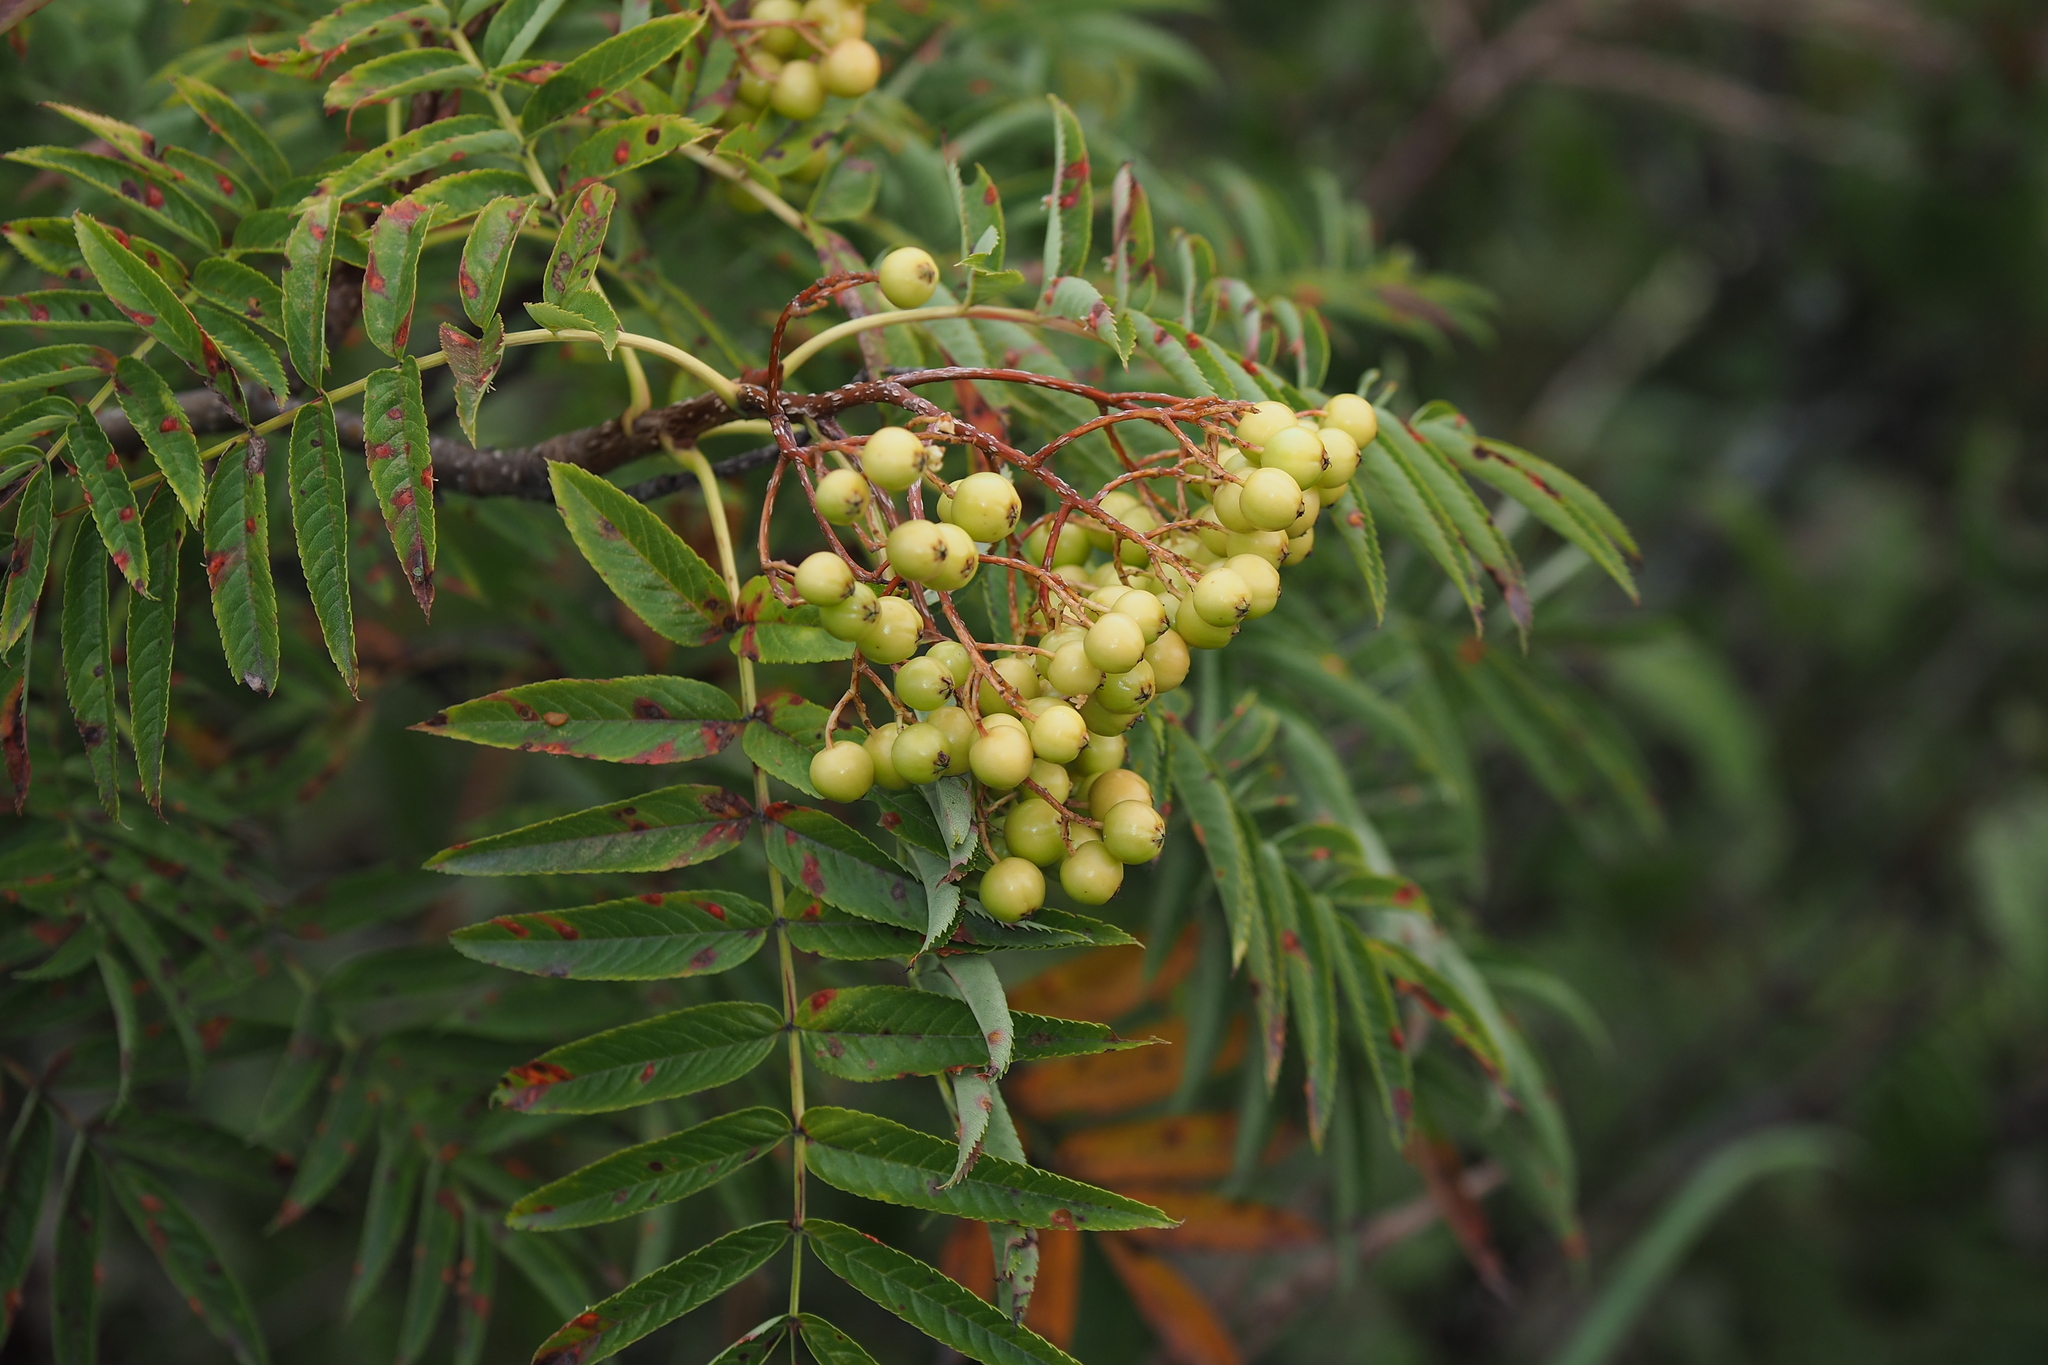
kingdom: Plantae
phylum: Tracheophyta
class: Magnoliopsida
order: Rosales
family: Rosaceae
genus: Sorbus
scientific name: Sorbus randaiensis
